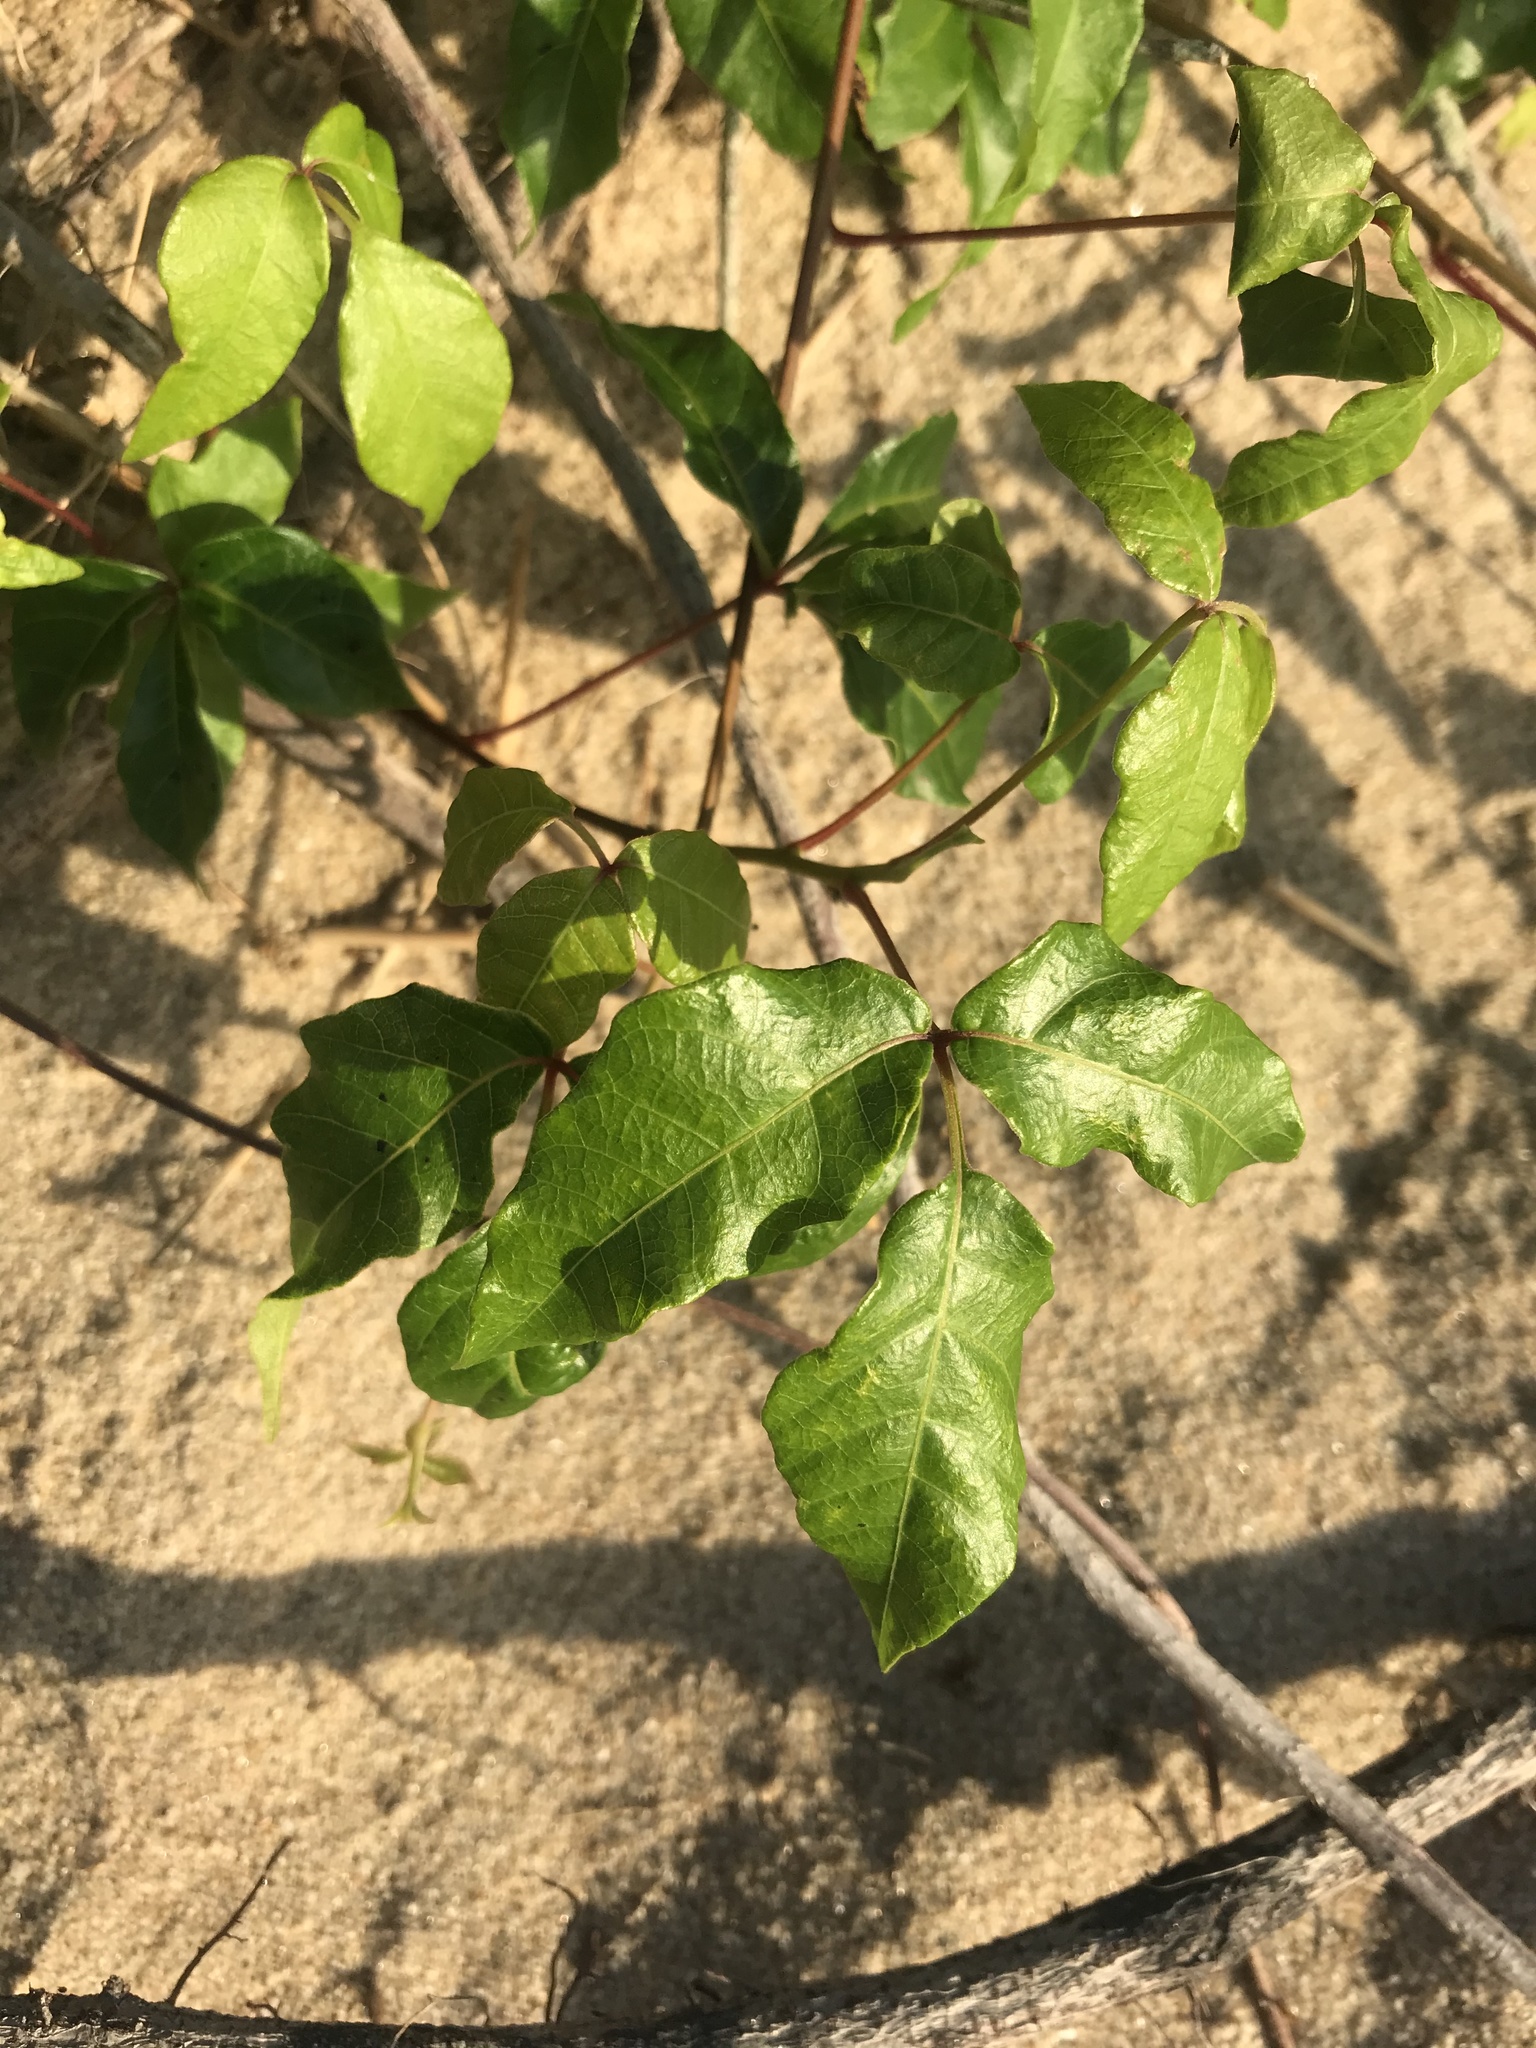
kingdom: Plantae
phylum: Tracheophyta
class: Magnoliopsida
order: Sapindales
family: Anacardiaceae
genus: Toxicodendron
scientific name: Toxicodendron radicans
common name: Poison ivy
